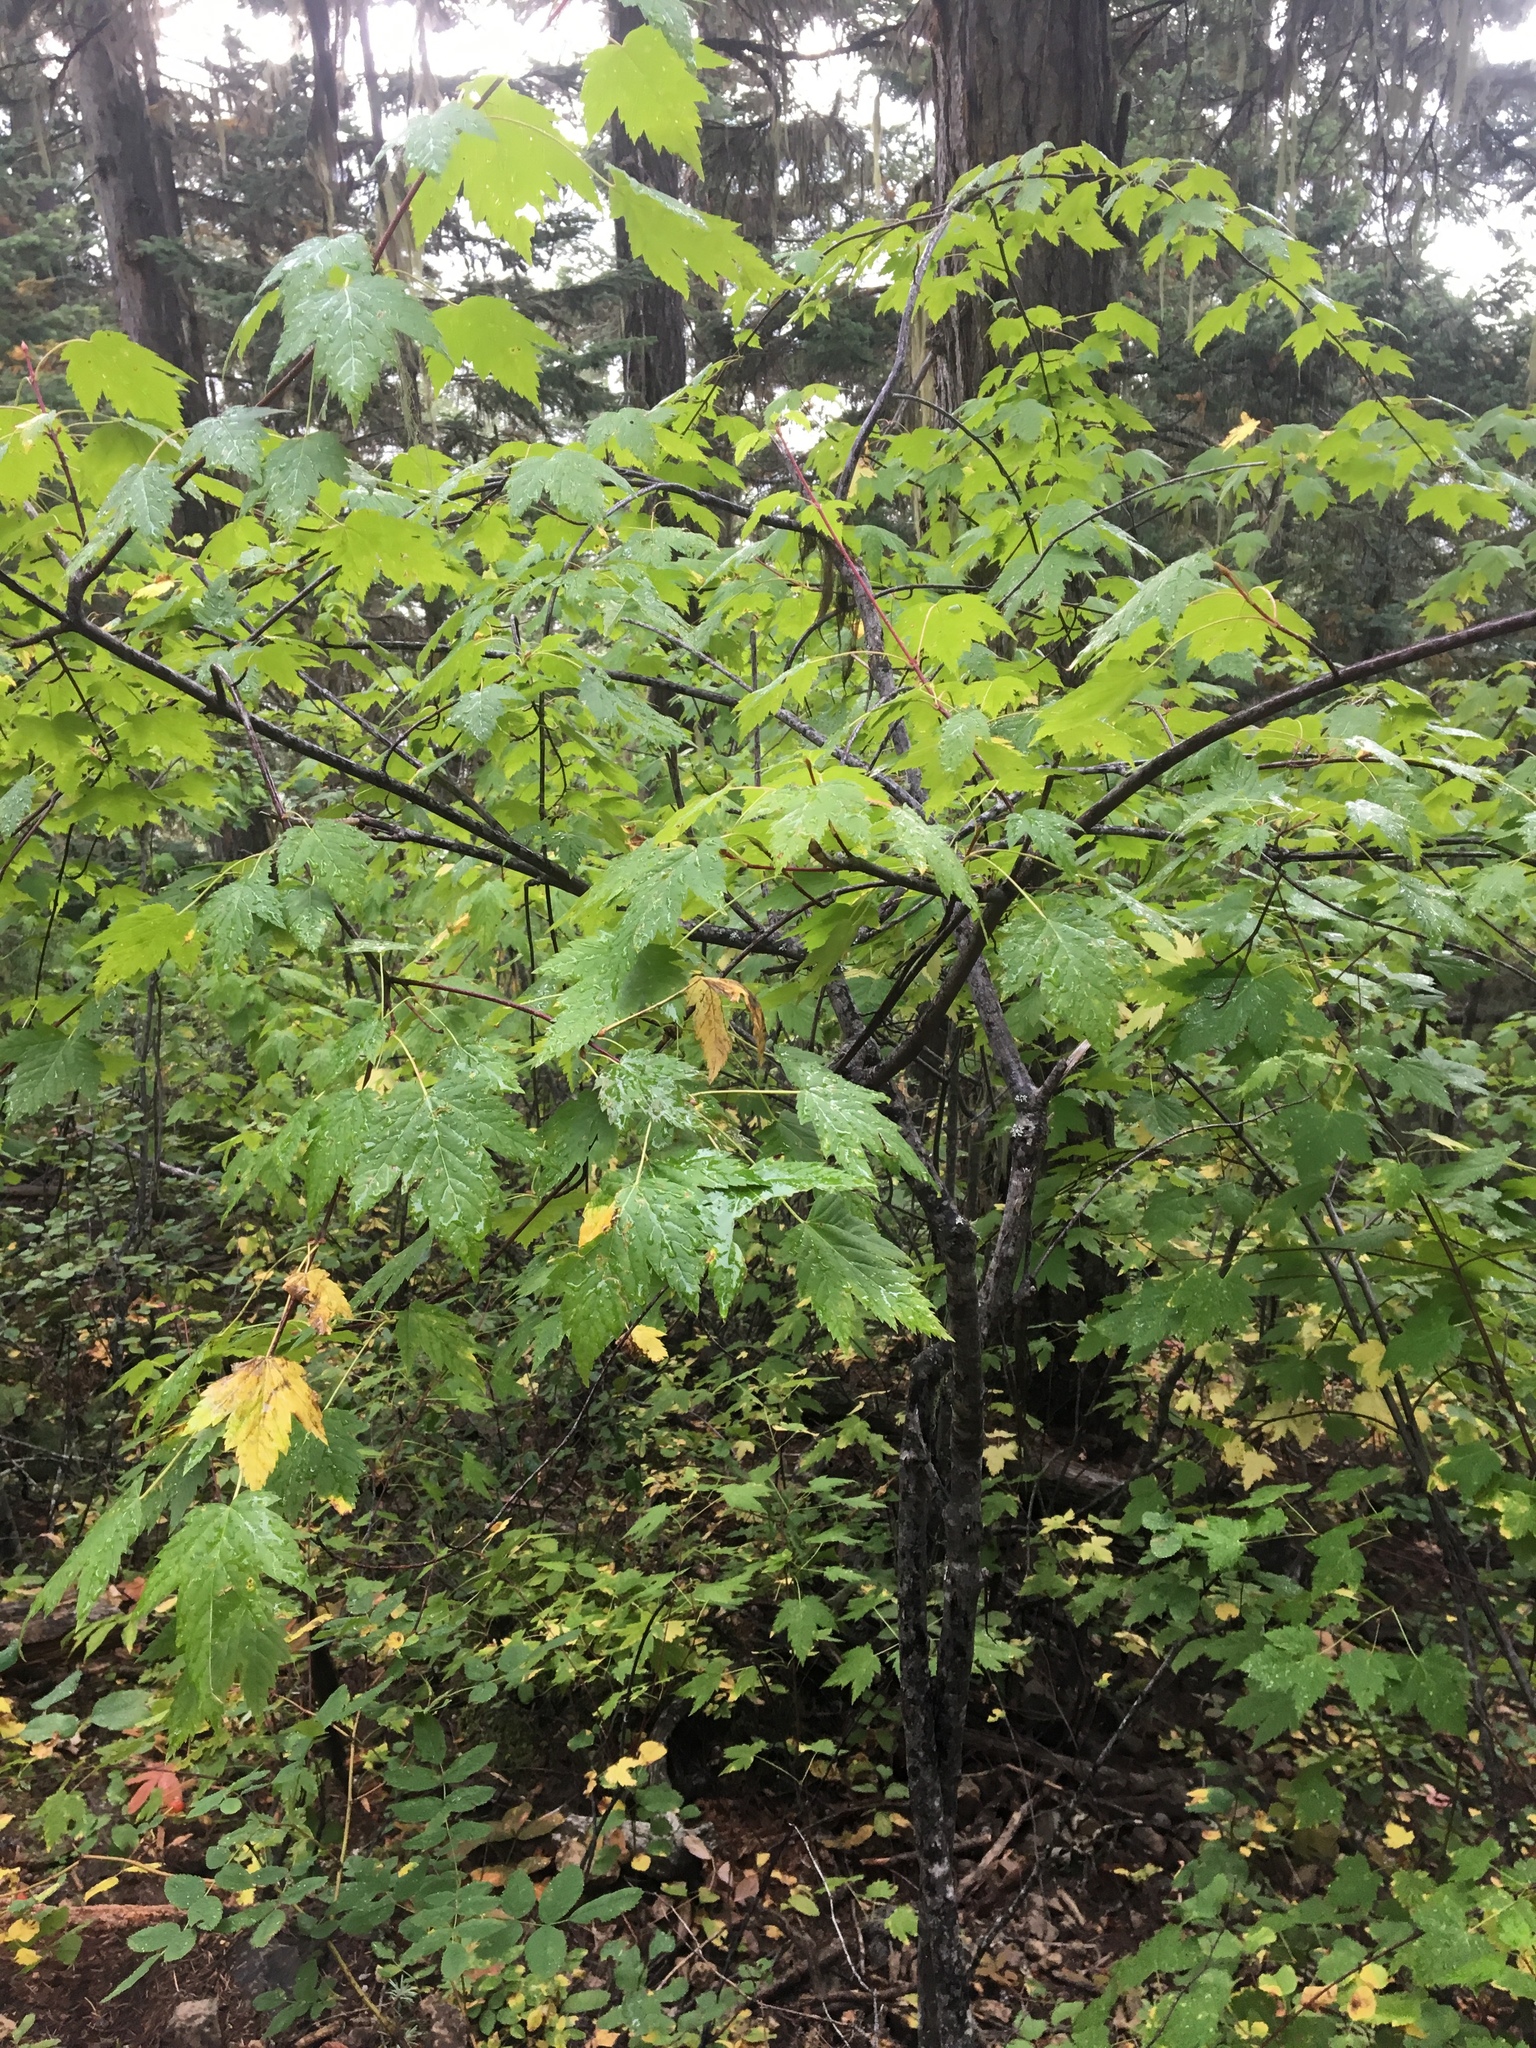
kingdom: Plantae
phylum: Tracheophyta
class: Magnoliopsida
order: Sapindales
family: Sapindaceae
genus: Acer
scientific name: Acer glabrum
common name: Rocky mountain maple
